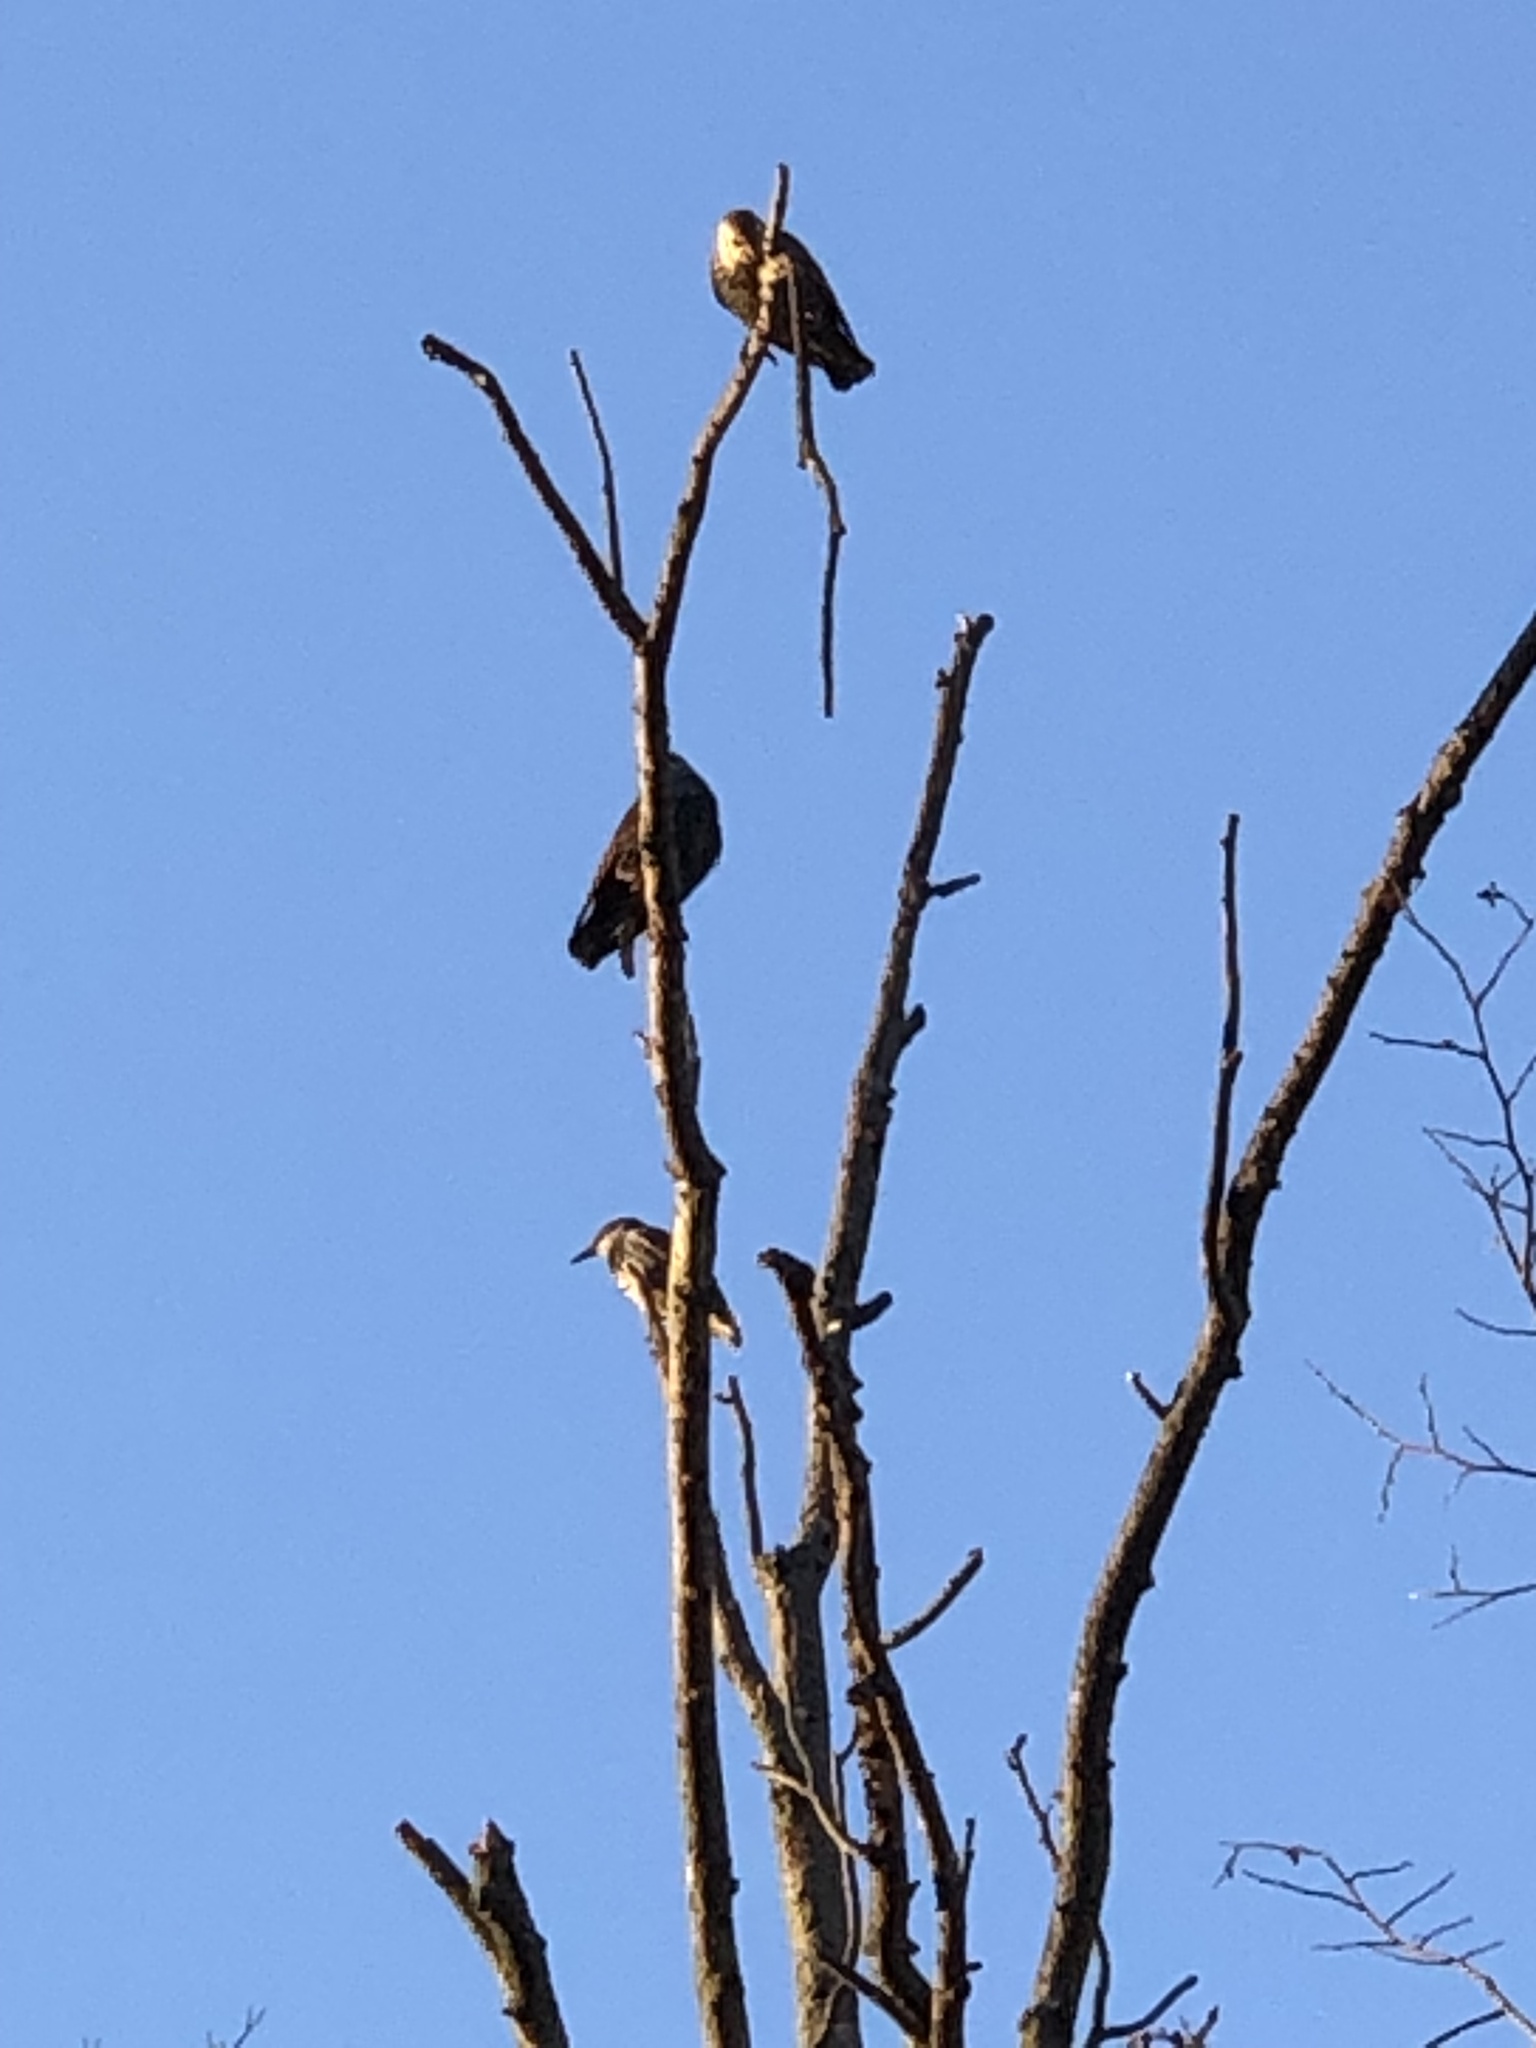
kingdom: Animalia
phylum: Chordata
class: Aves
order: Passeriformes
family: Sturnidae
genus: Sturnus
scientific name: Sturnus vulgaris
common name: Common starling
